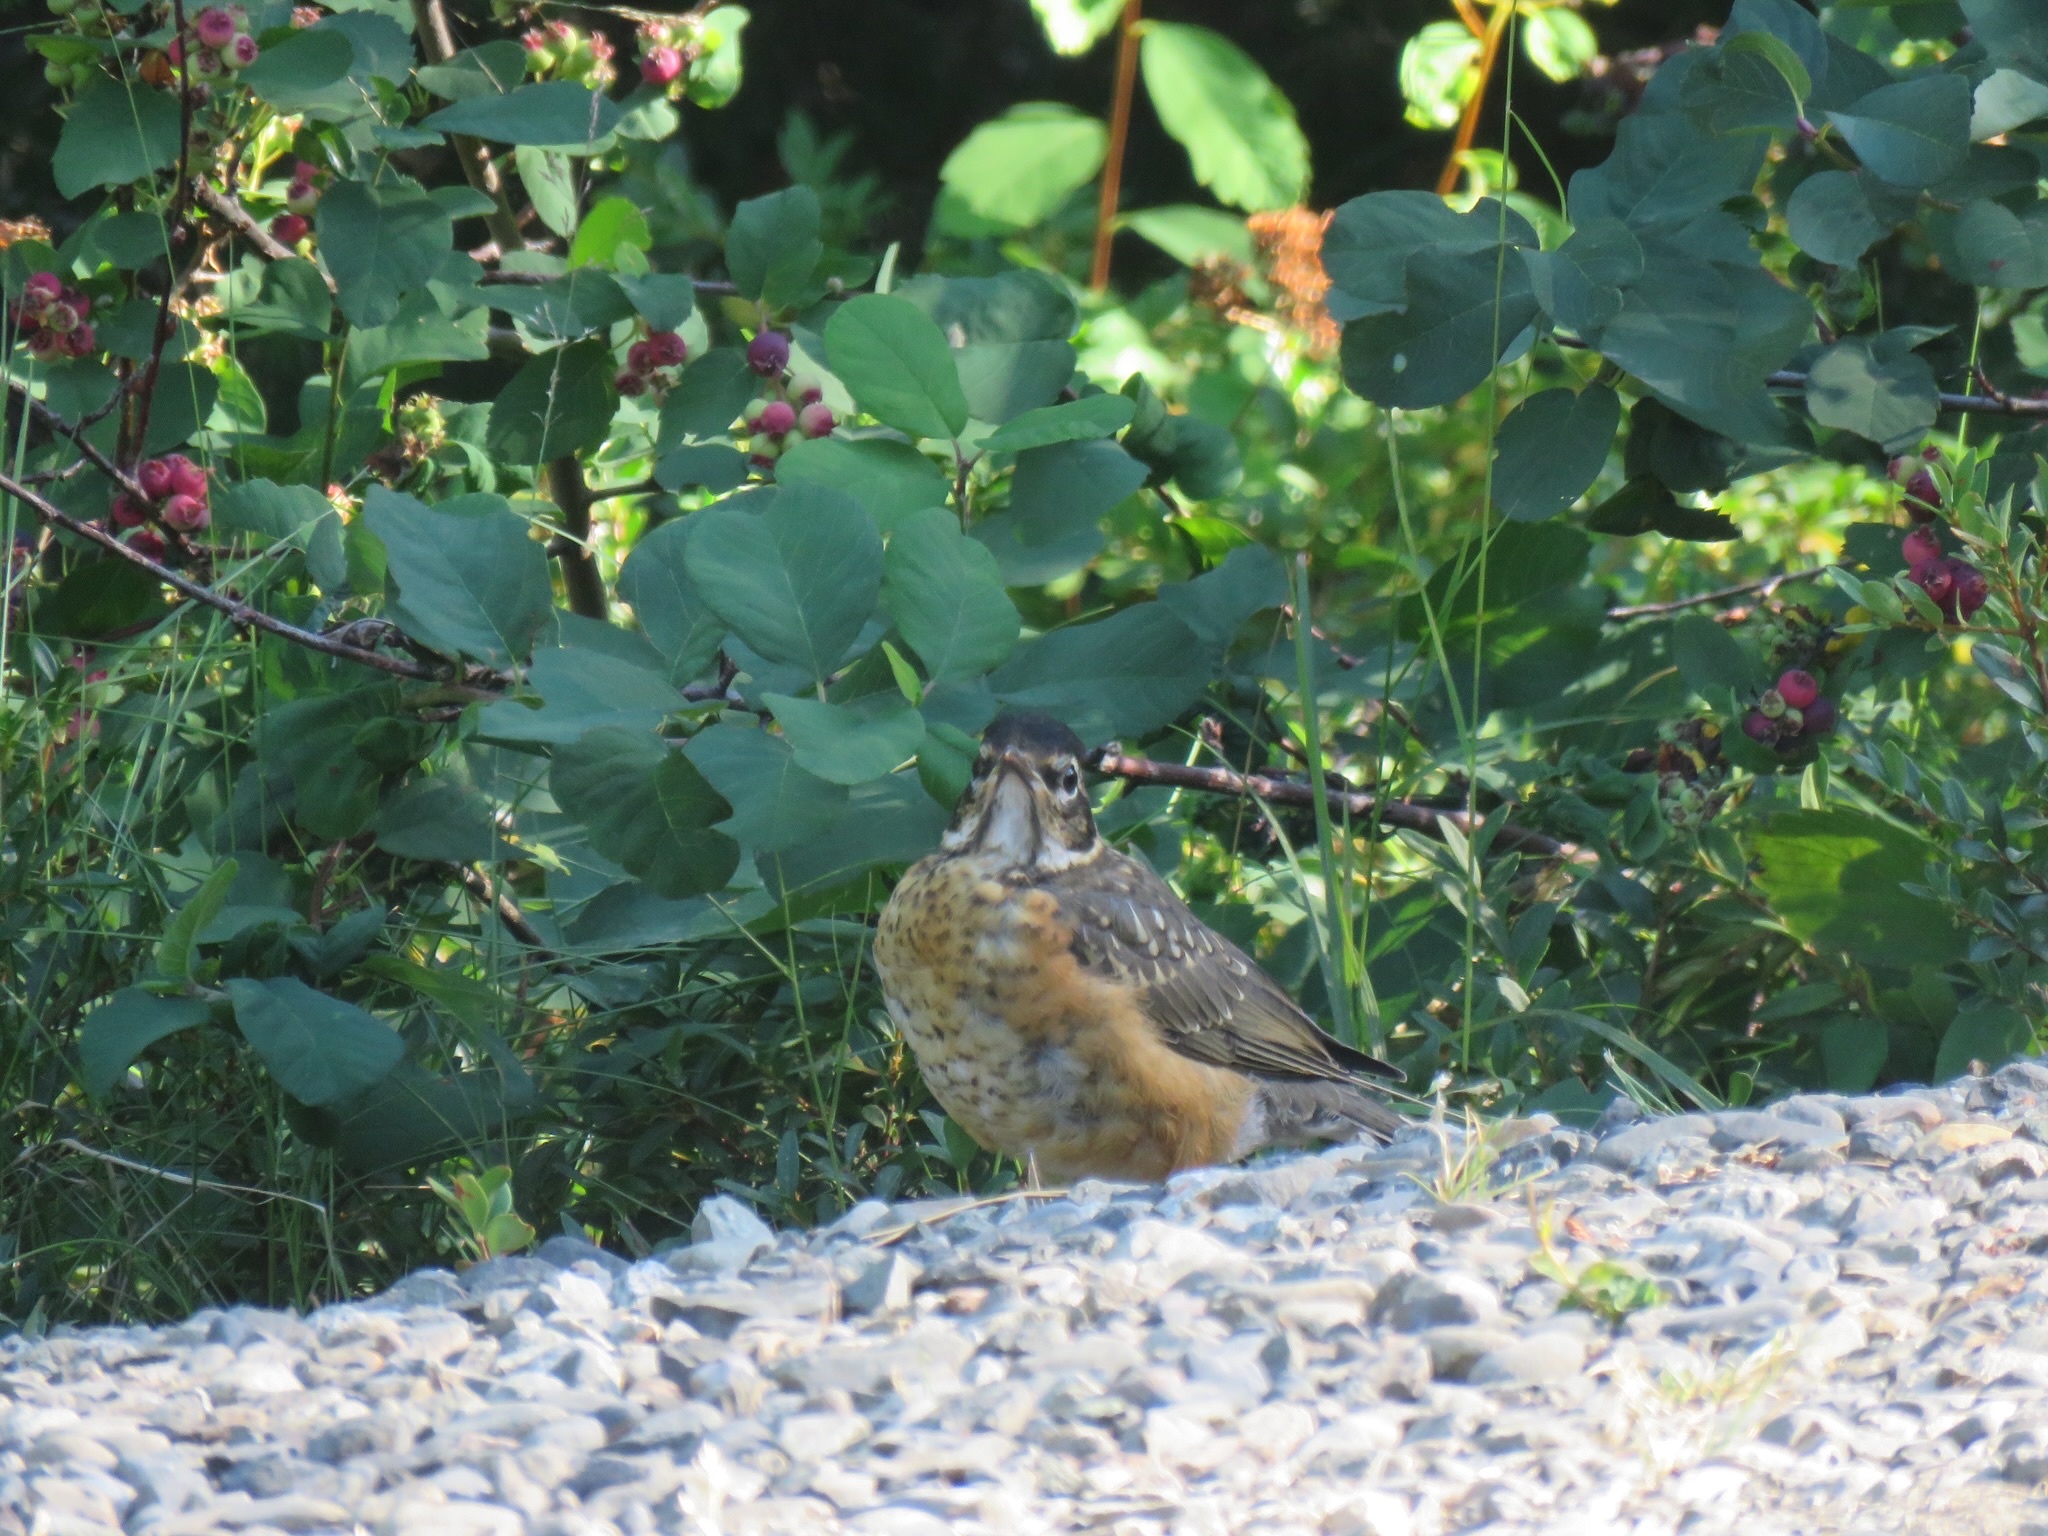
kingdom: Animalia
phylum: Chordata
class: Aves
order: Passeriformes
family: Turdidae
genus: Turdus
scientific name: Turdus migratorius
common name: American robin
